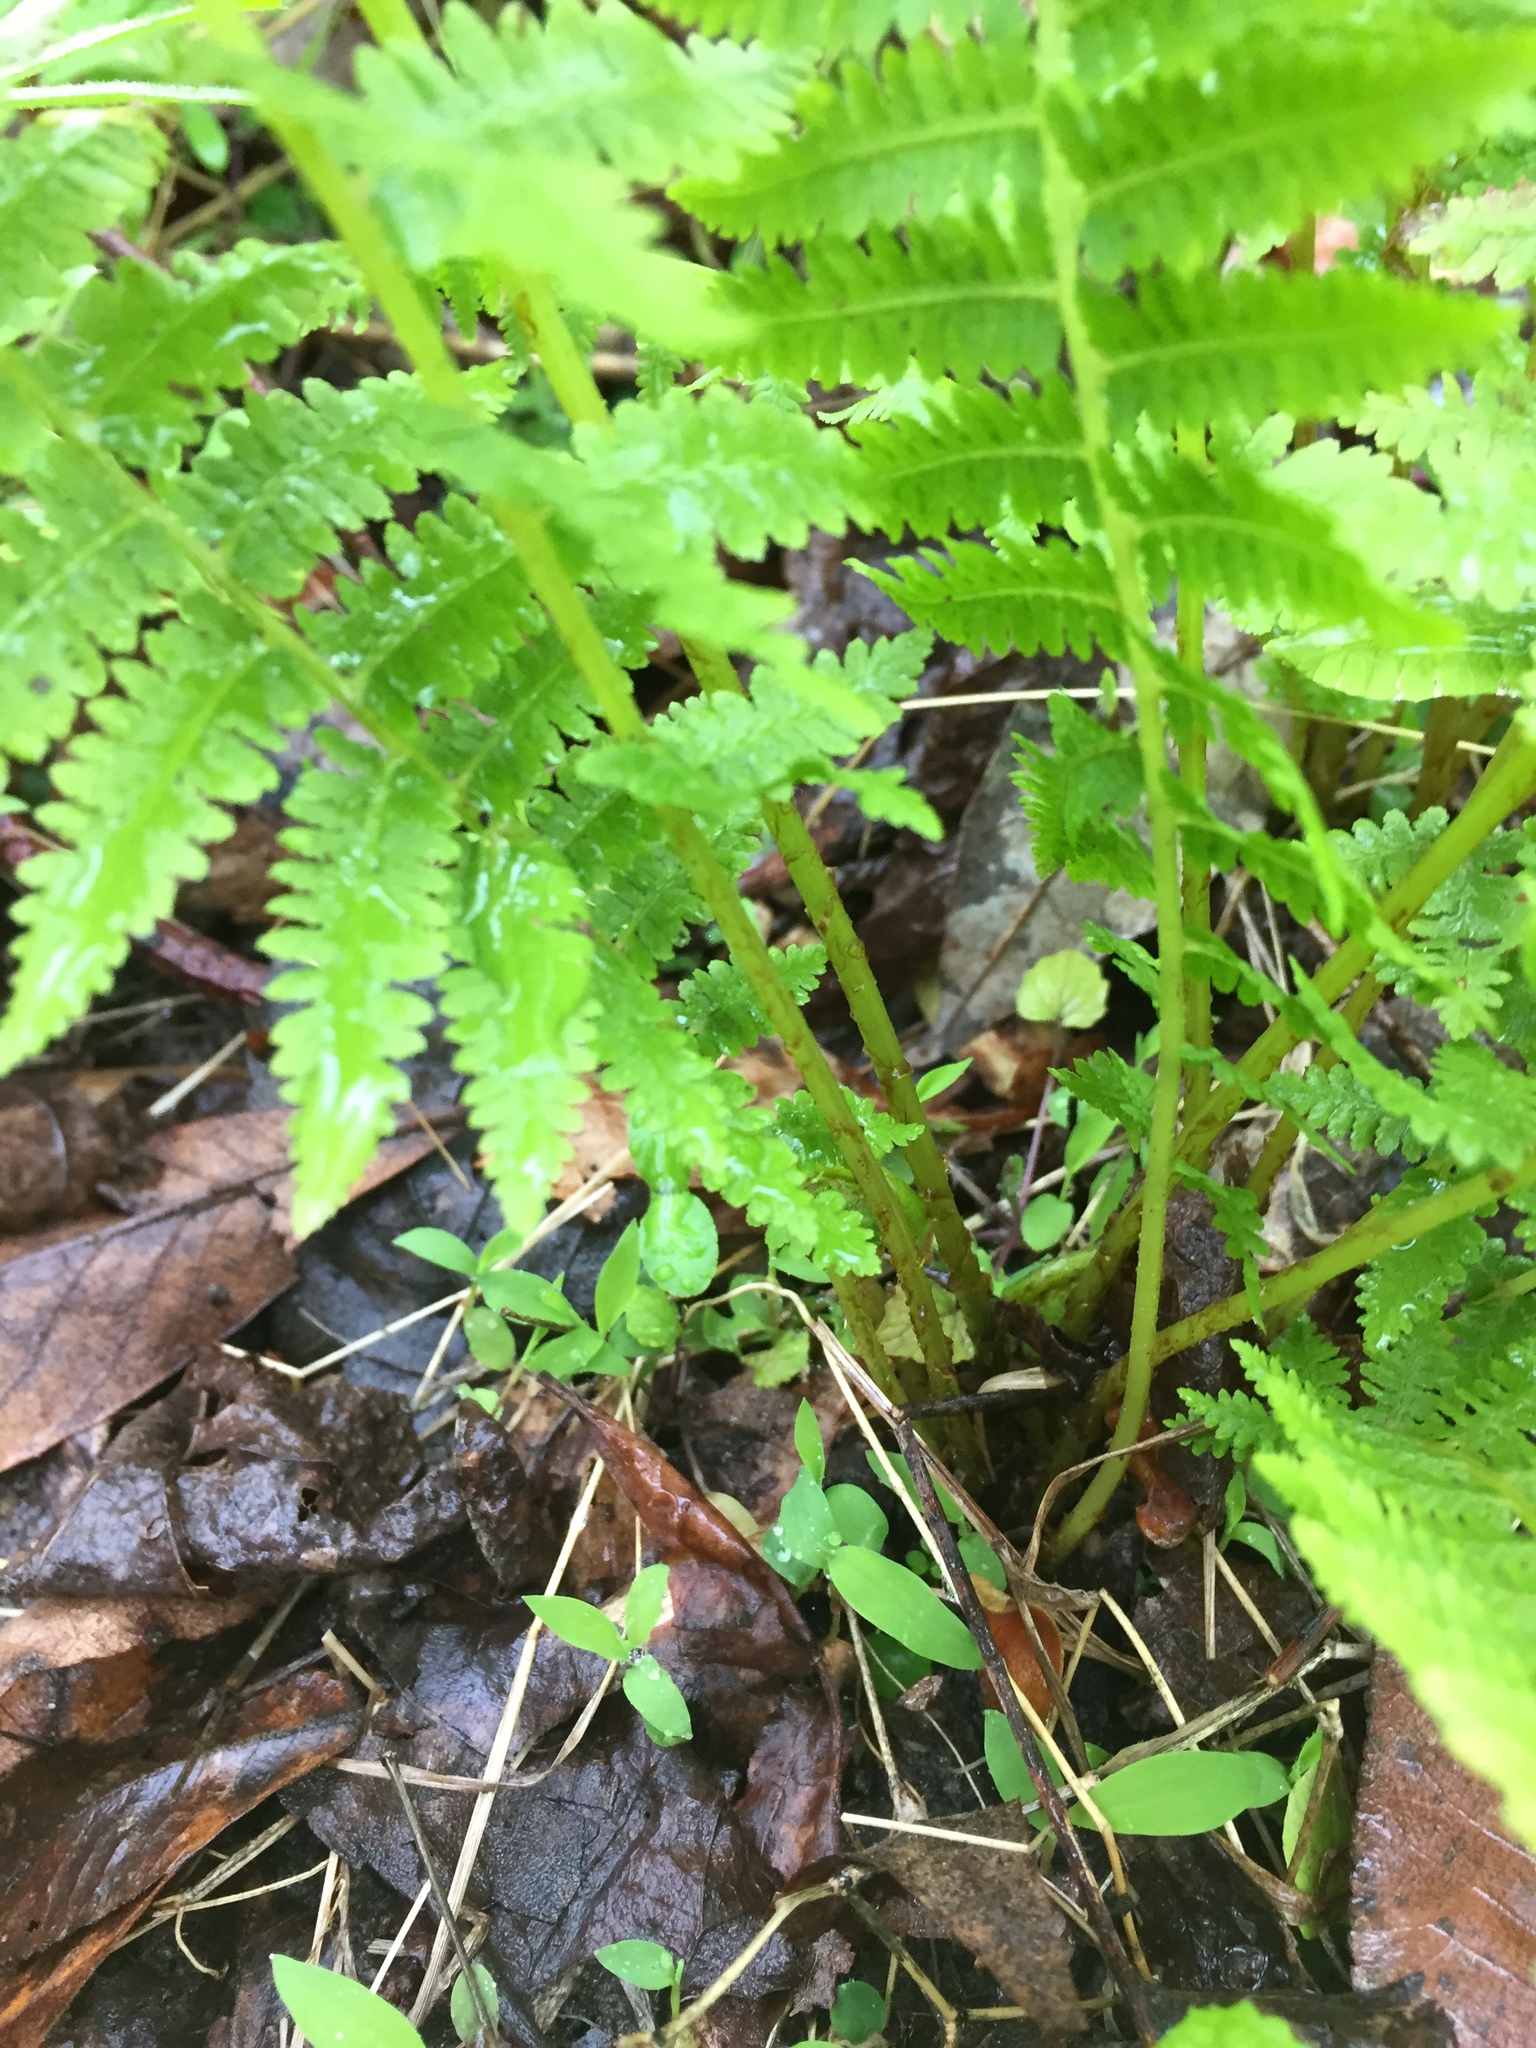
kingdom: Plantae
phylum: Tracheophyta
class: Polypodiopsida
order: Polypodiales
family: Athyriaceae
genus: Athyrium
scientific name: Athyrium asplenioides
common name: Southern lady fern
